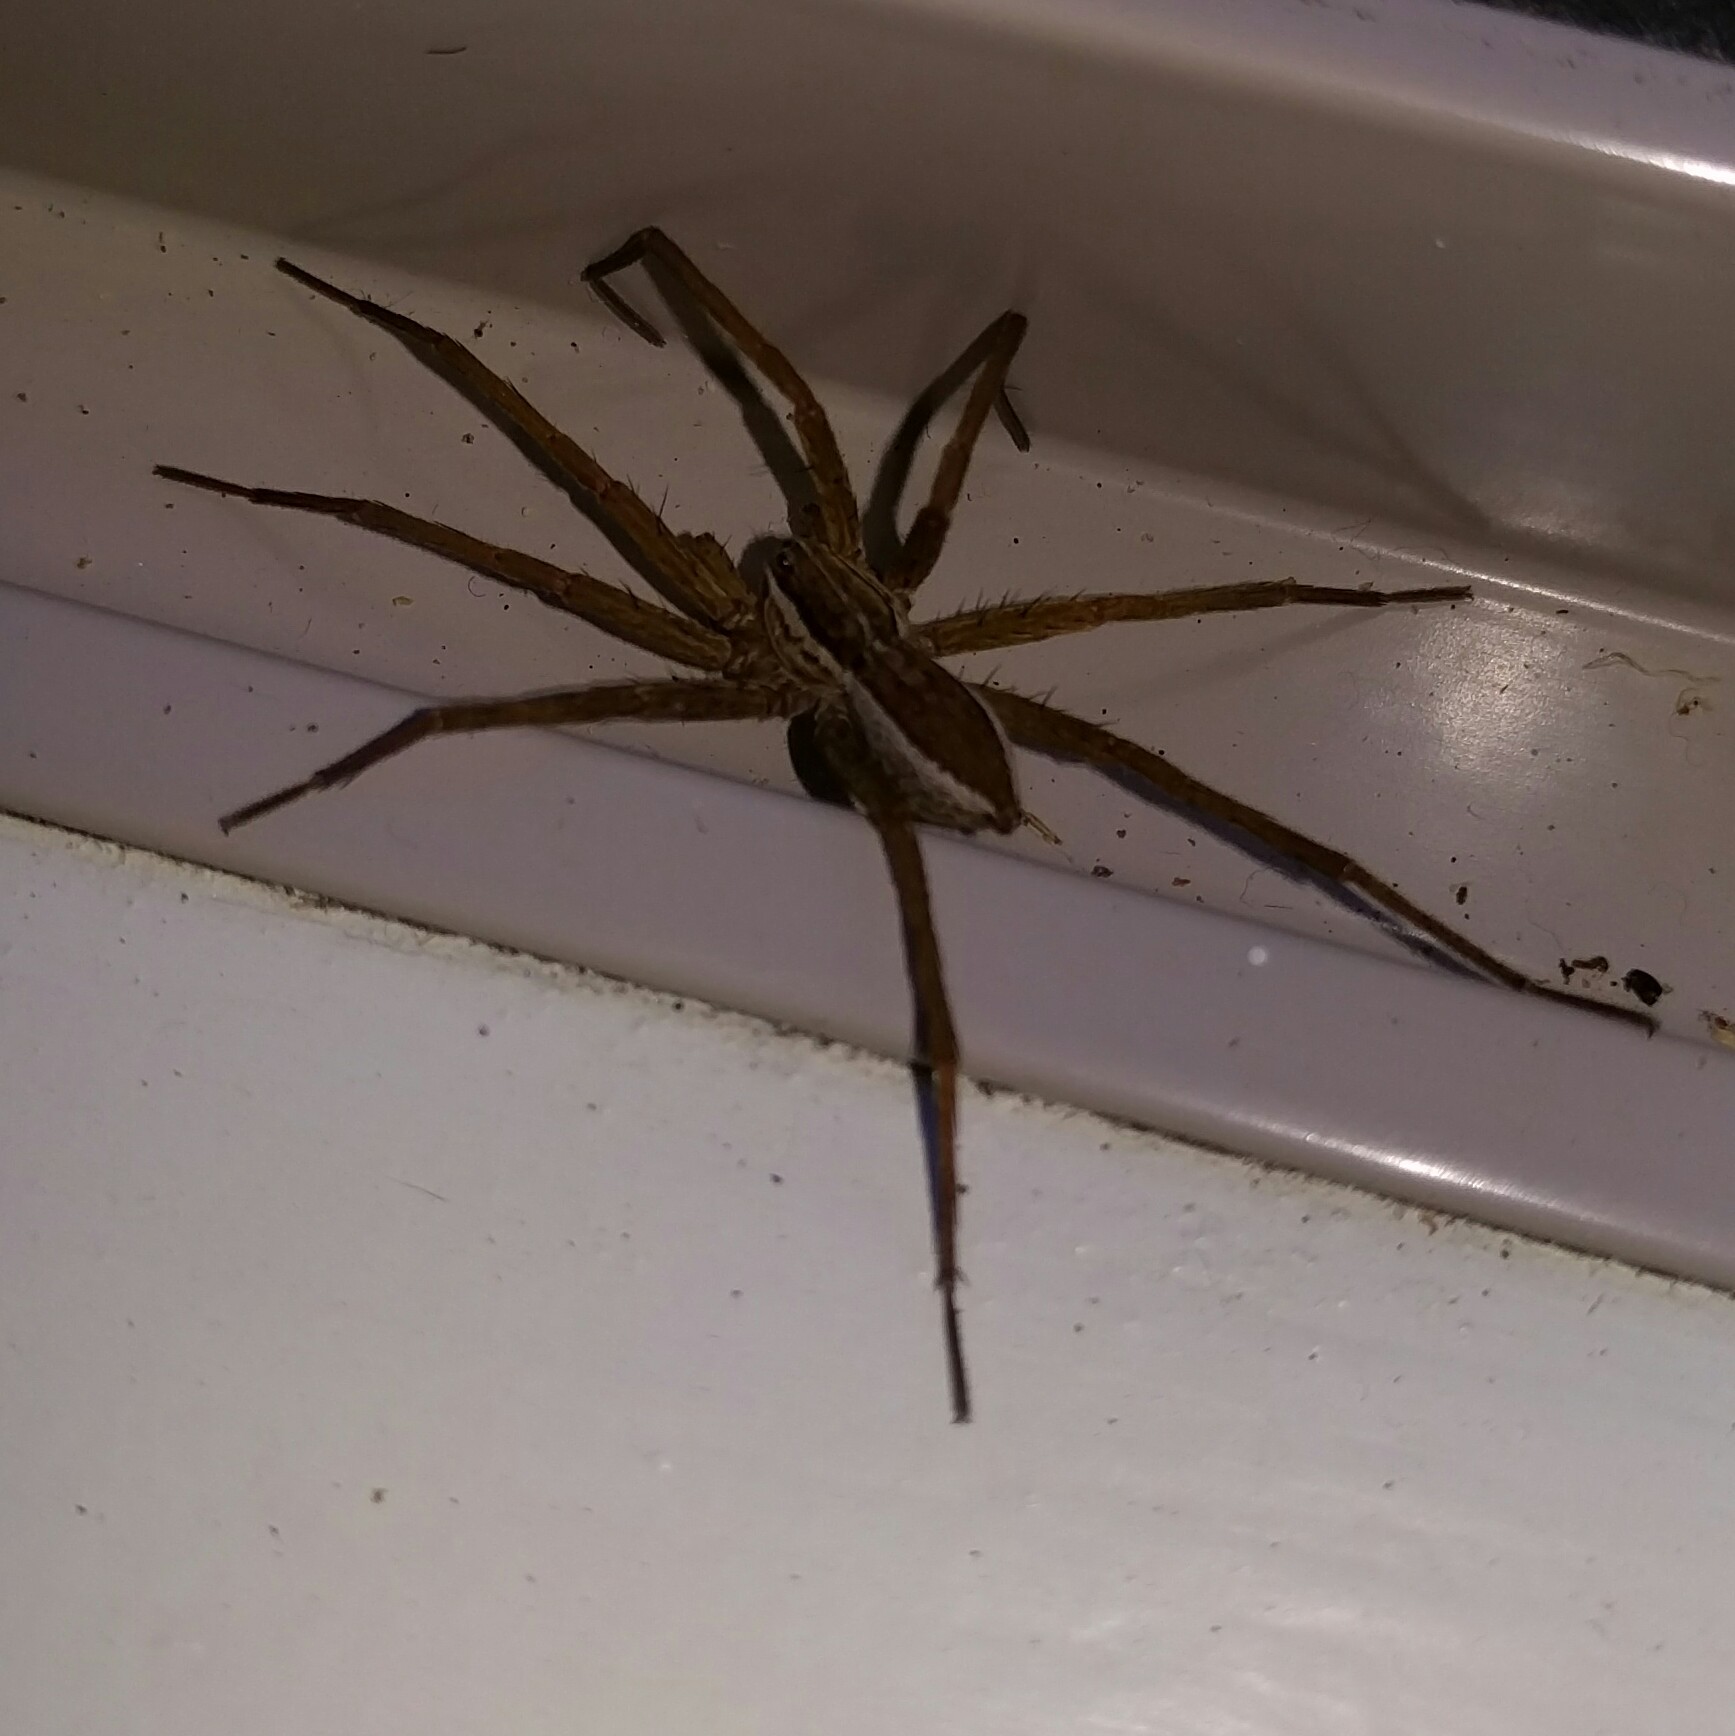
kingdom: Animalia
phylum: Arthropoda
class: Arachnida
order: Araneae
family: Pisauridae
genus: Dolomedes
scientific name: Dolomedes minor
